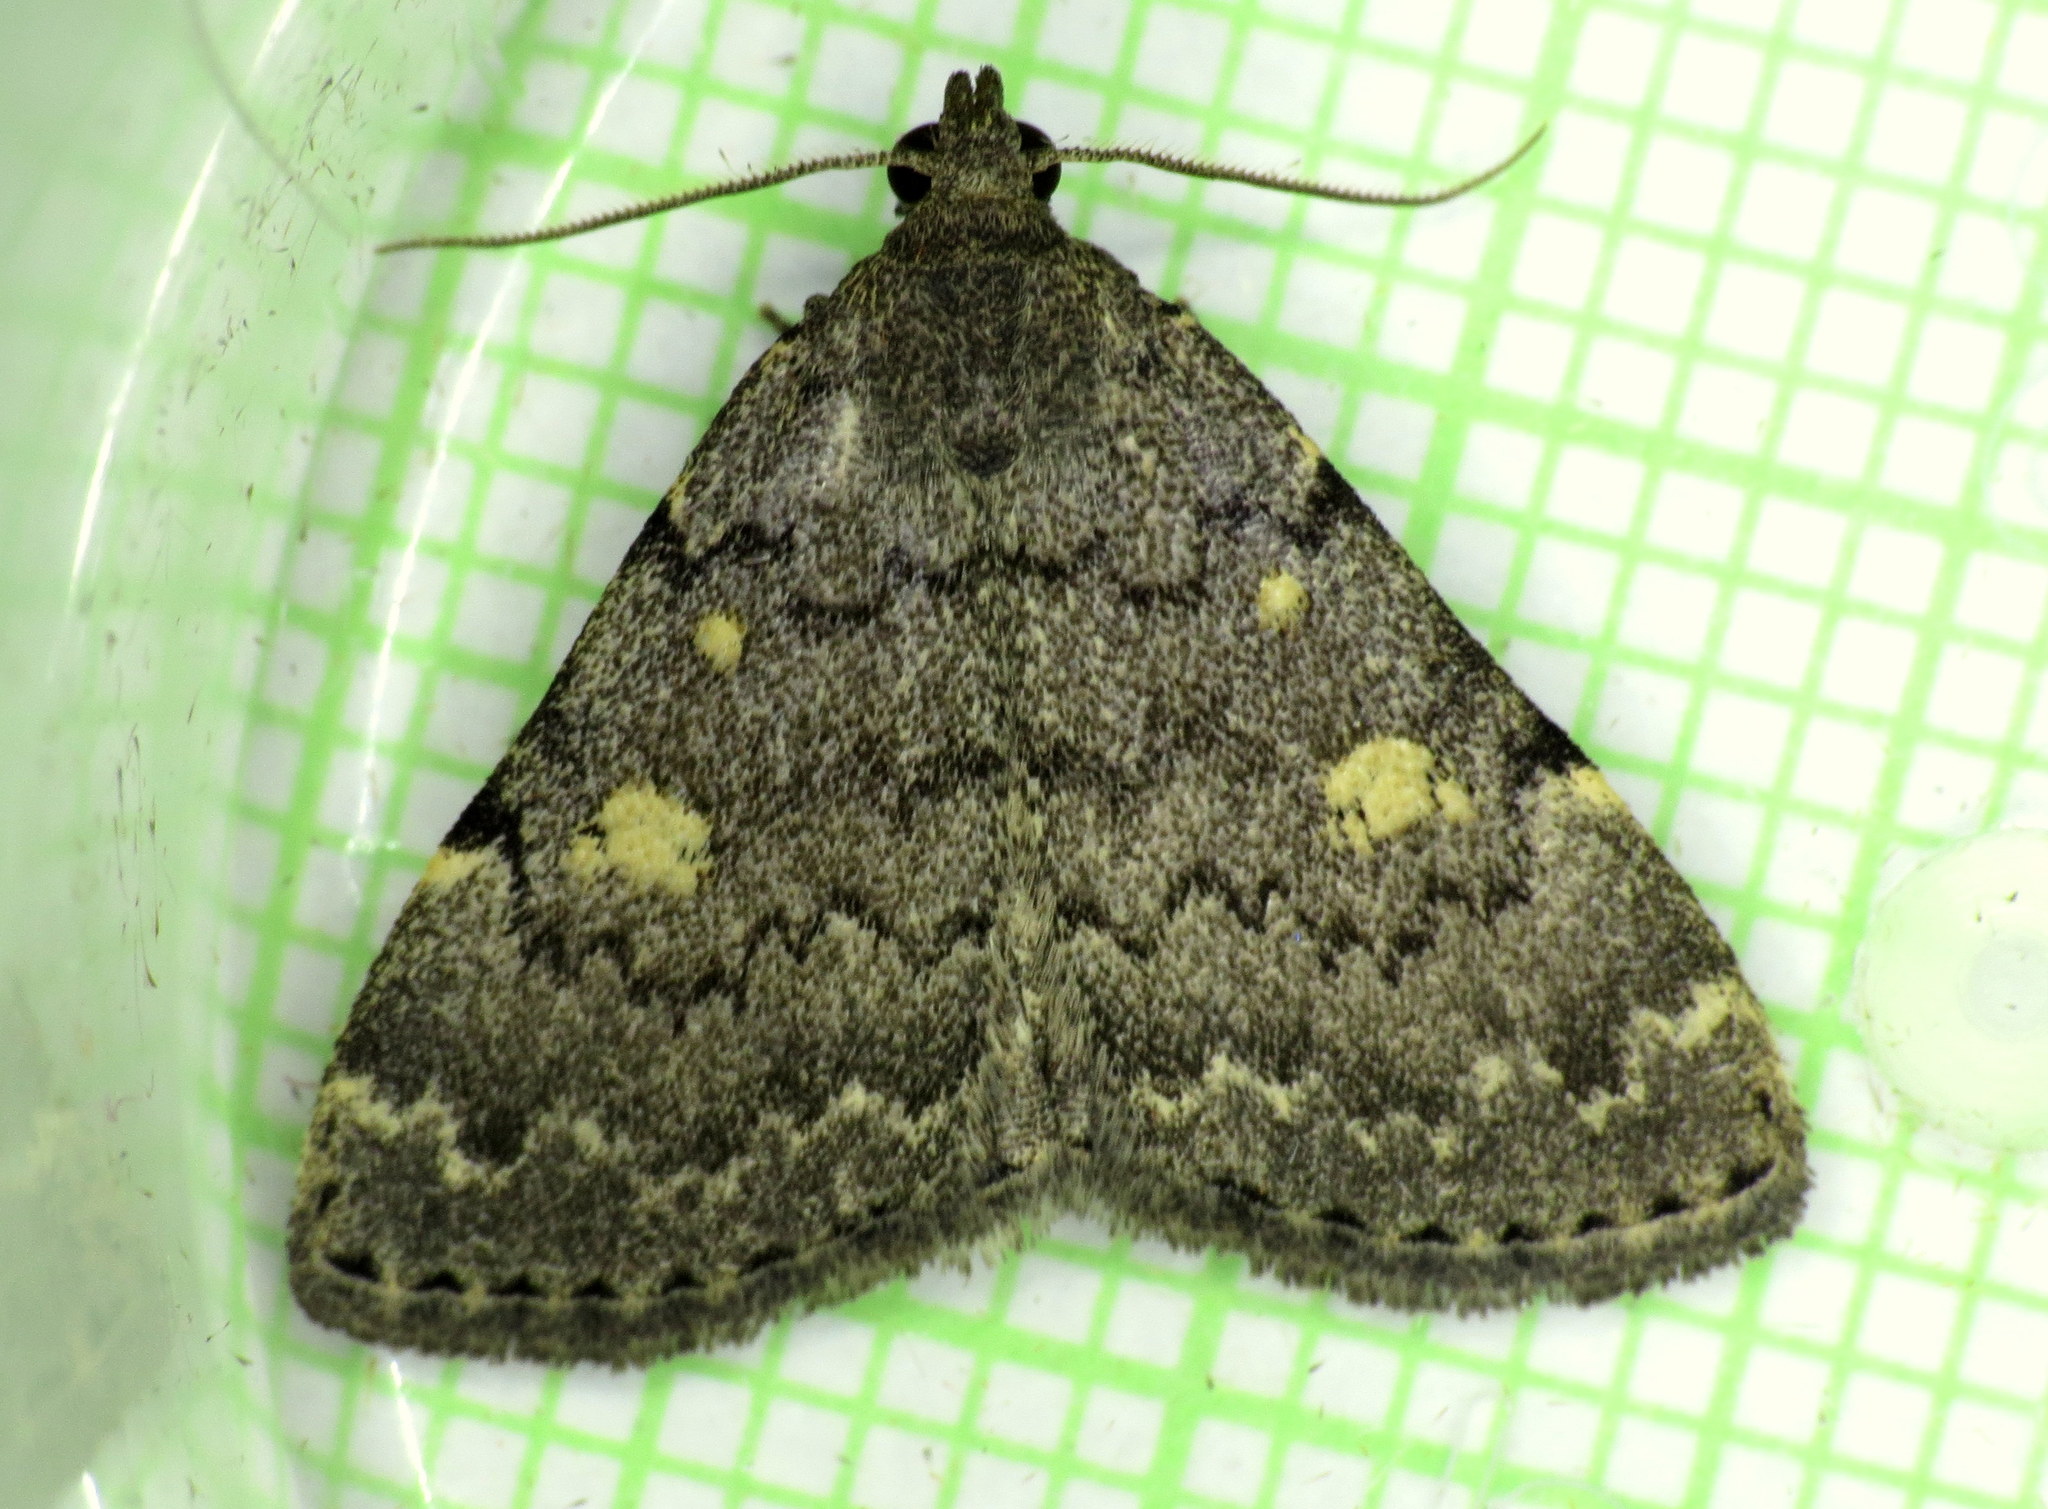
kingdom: Animalia
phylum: Arthropoda
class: Insecta
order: Lepidoptera
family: Erebidae
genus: Idia
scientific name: Idia aemula
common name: Common idia moth
